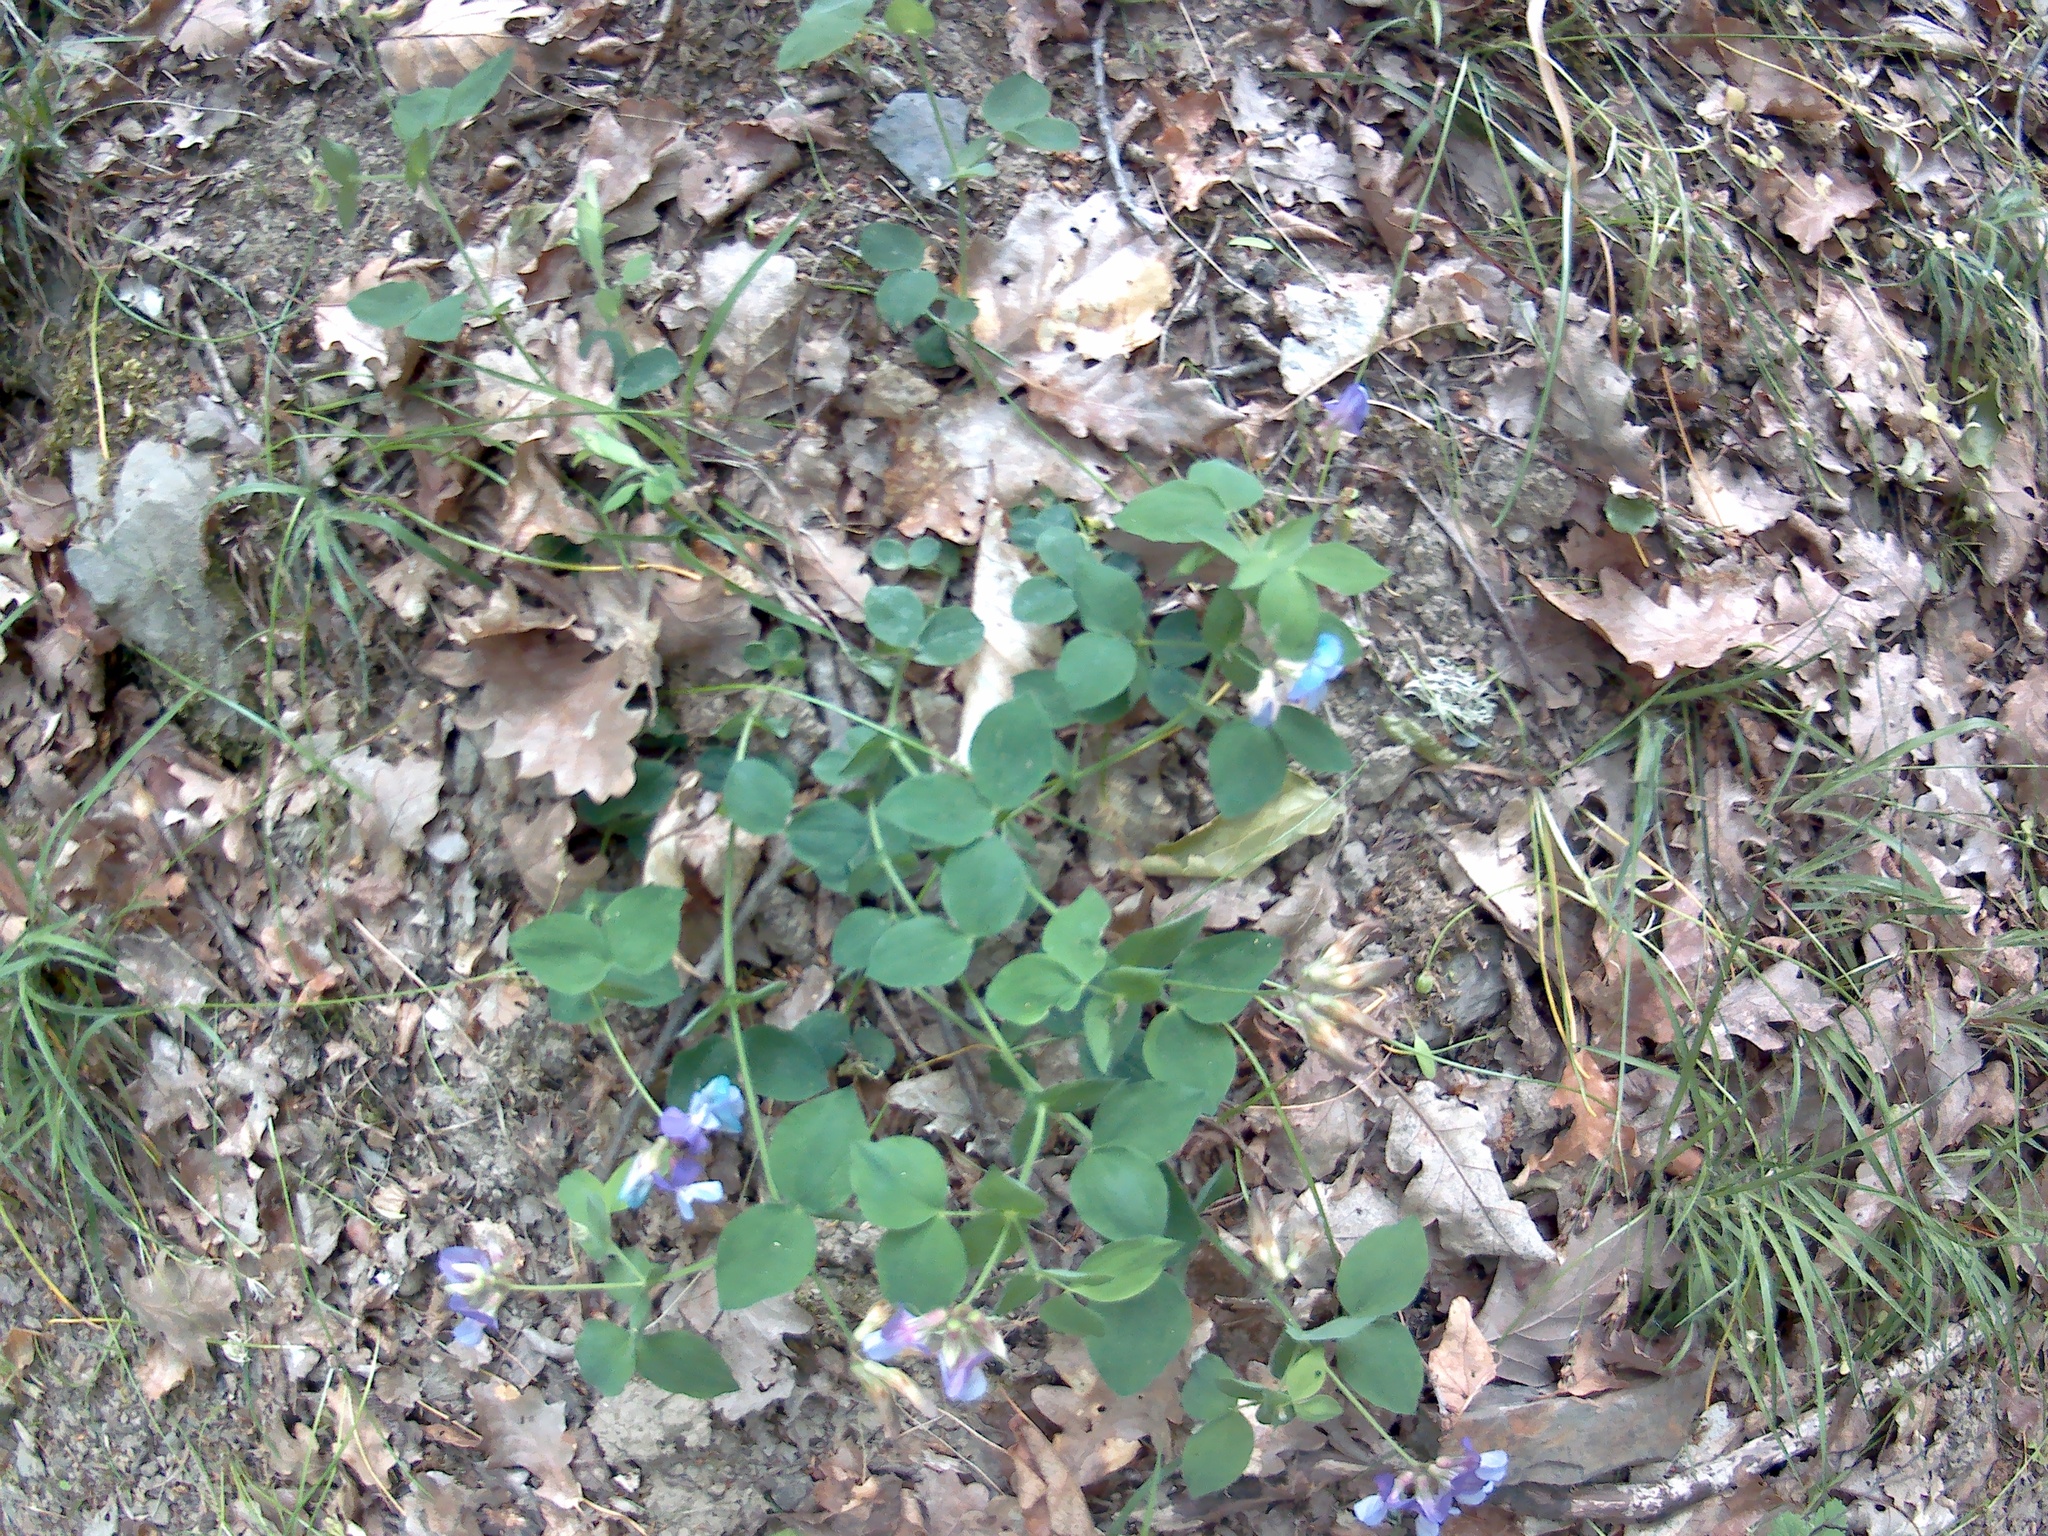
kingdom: Plantae
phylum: Tracheophyta
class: Magnoliopsida
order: Fabales
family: Fabaceae
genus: Lathyrus
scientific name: Lathyrus laxiflorus
